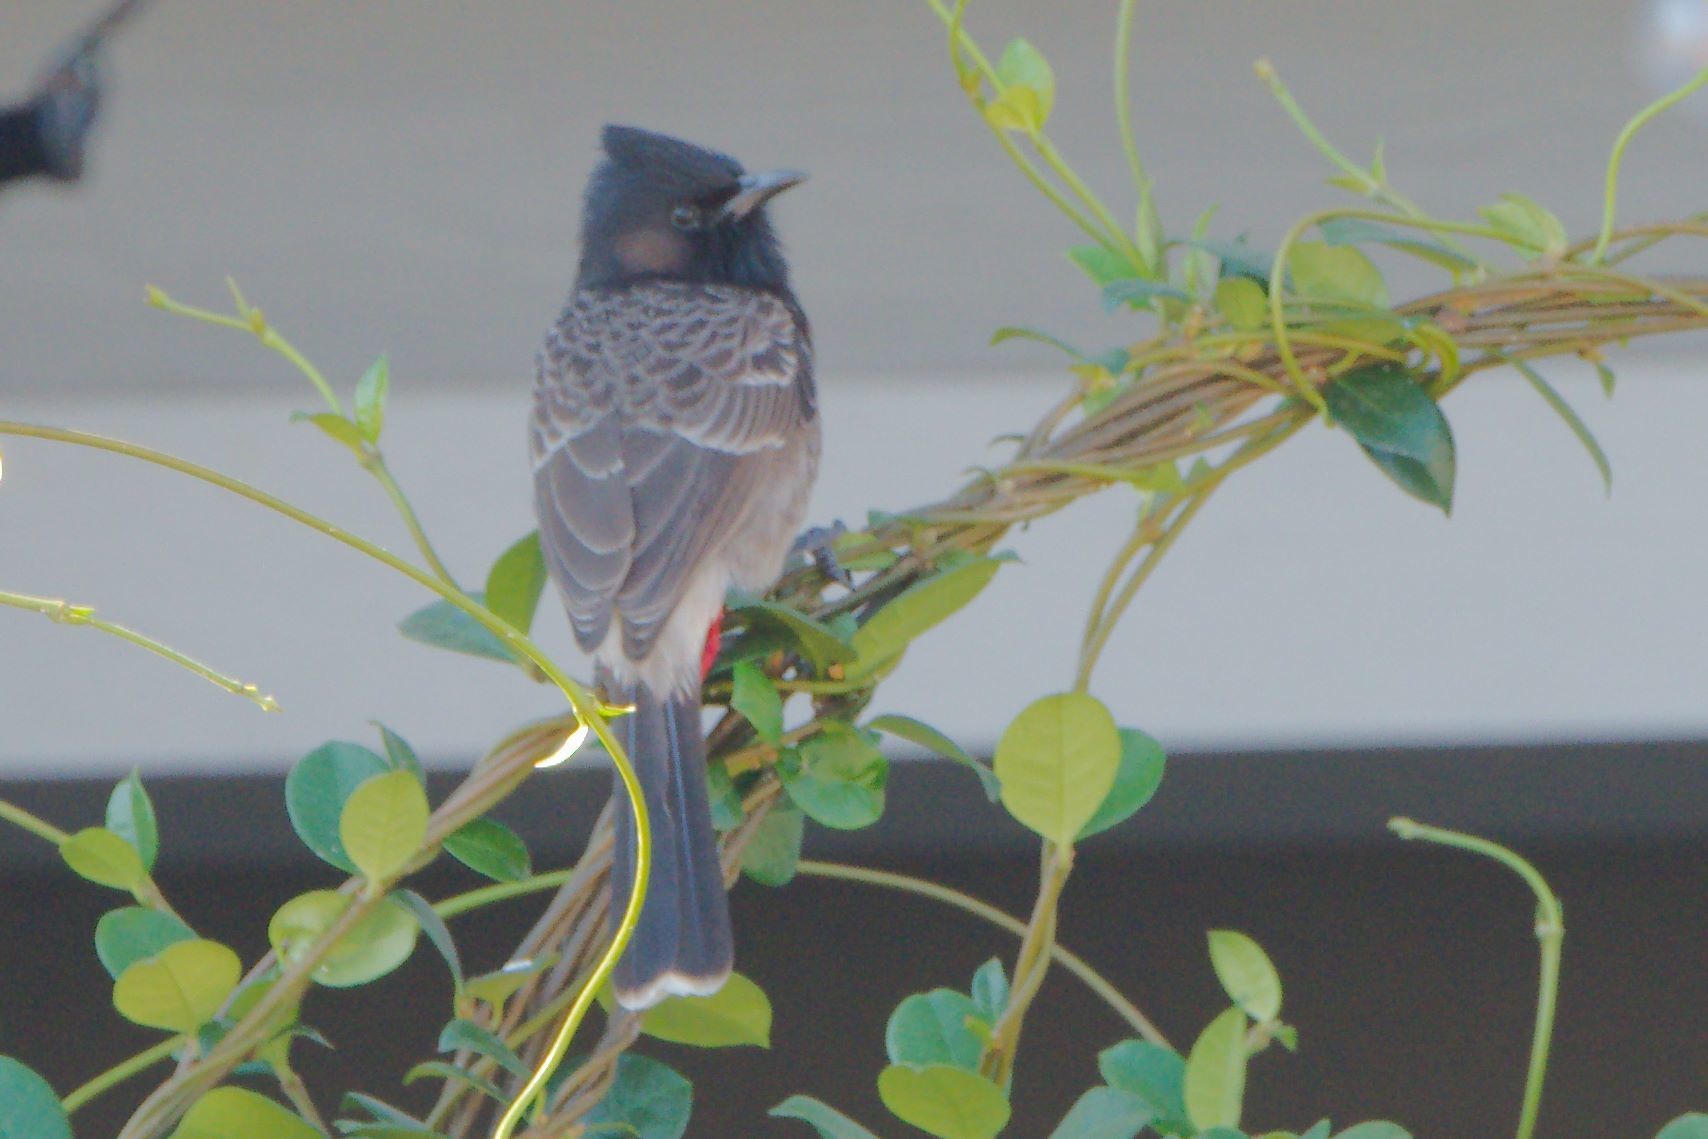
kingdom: Animalia
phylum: Chordata
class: Aves
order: Passeriformes
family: Pycnonotidae
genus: Pycnonotus
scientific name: Pycnonotus cafer
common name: Red-vented bulbul
